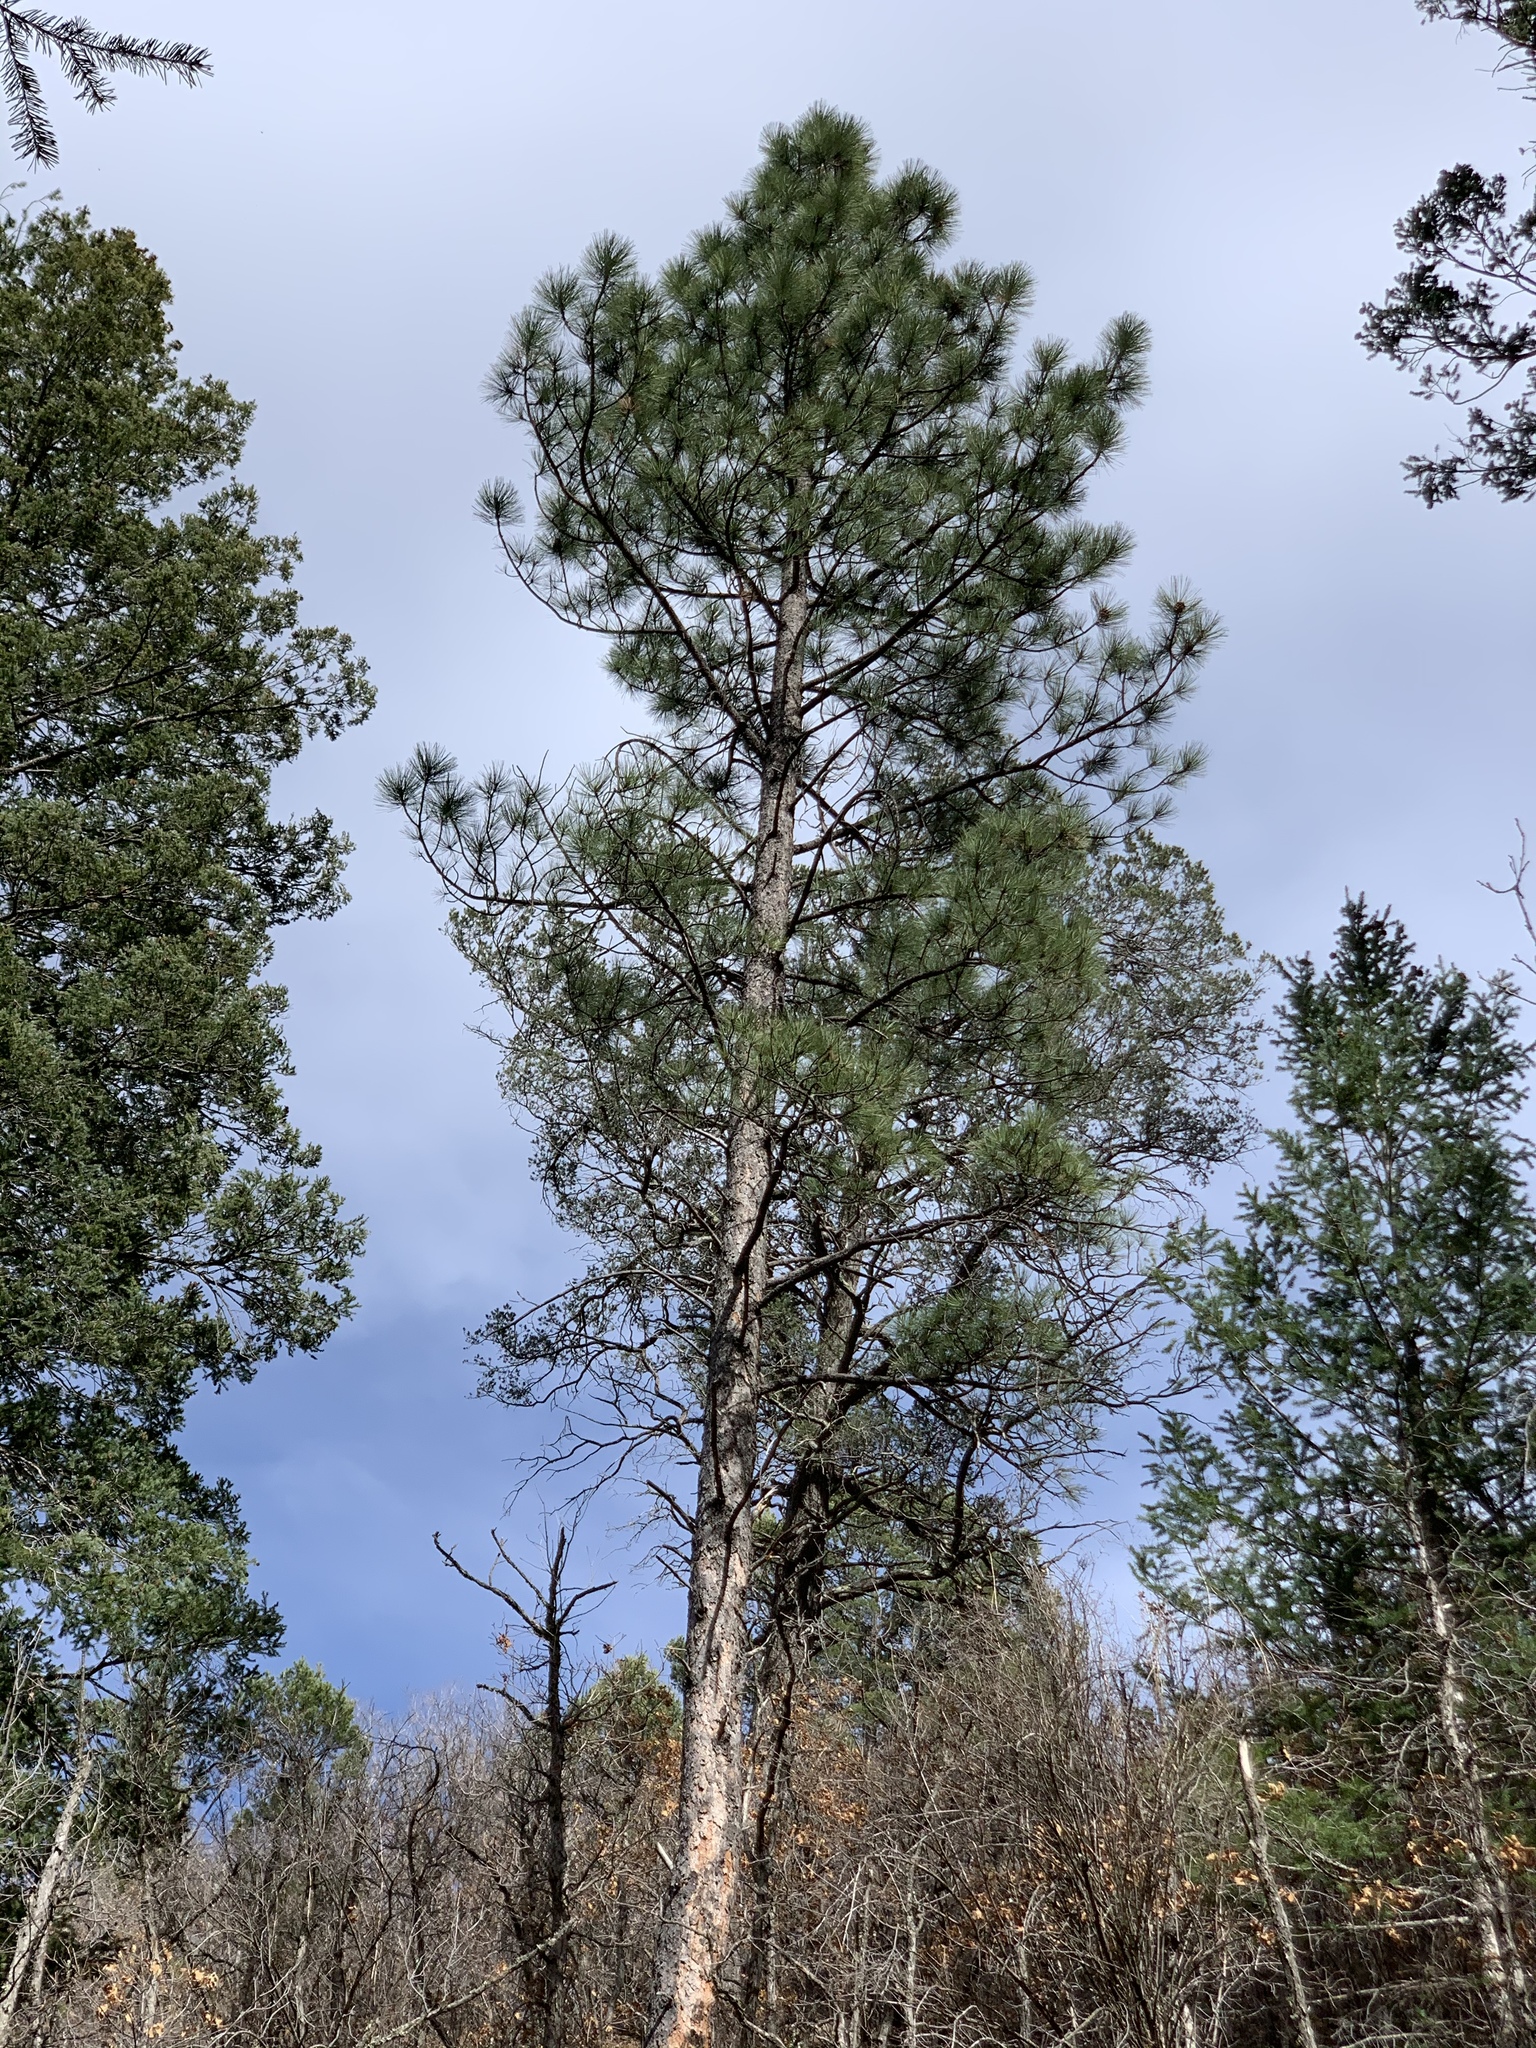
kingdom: Plantae
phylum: Tracheophyta
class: Pinopsida
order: Pinales
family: Pinaceae
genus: Pinus
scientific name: Pinus ponderosa
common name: Western yellow-pine
